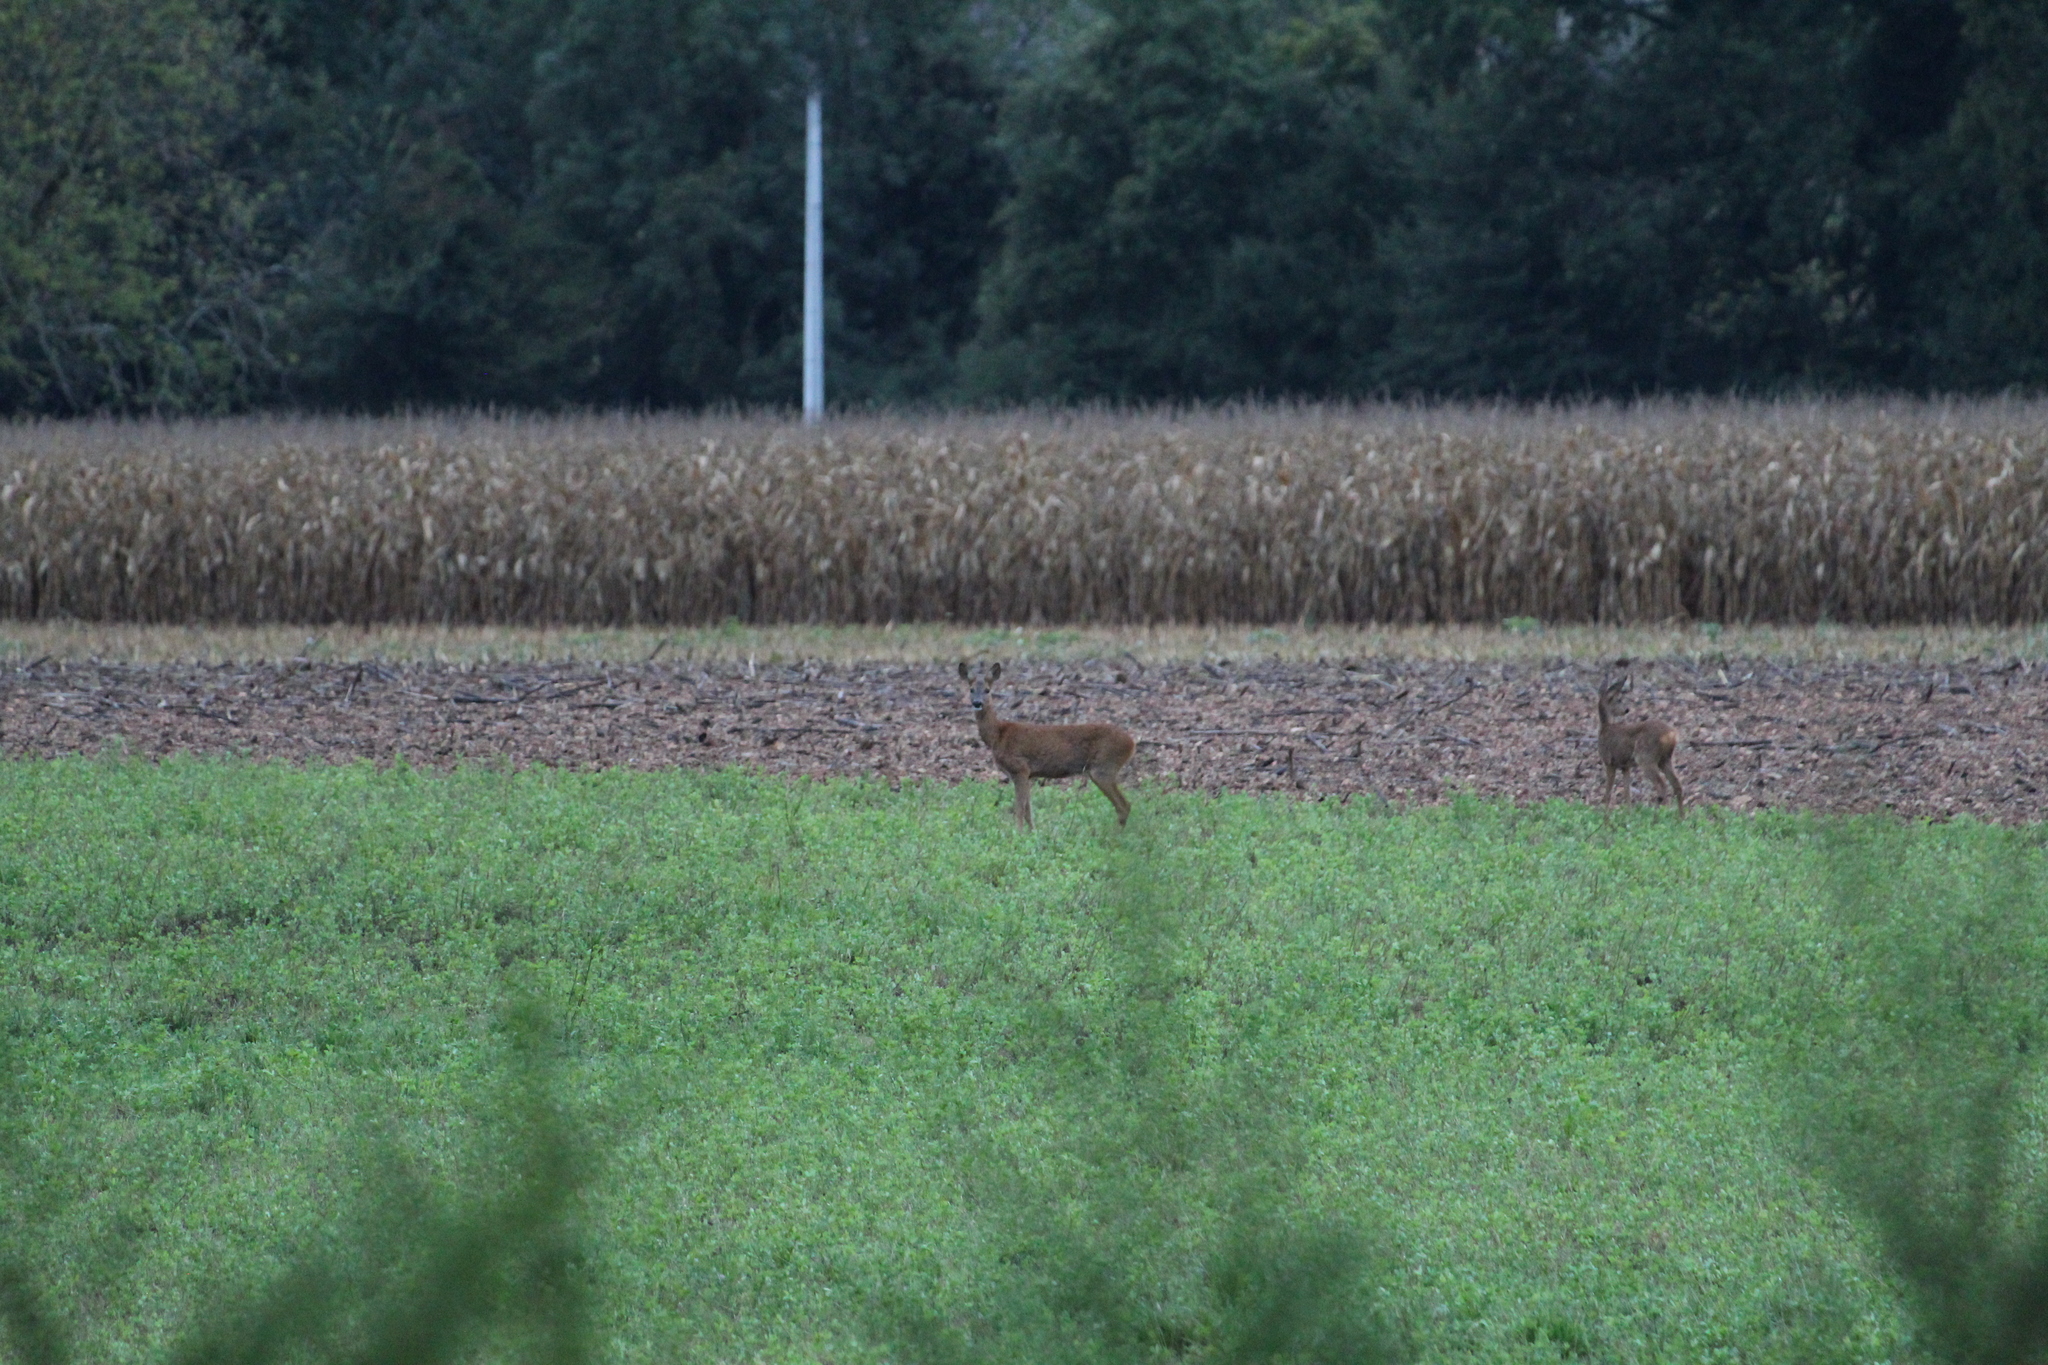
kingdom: Animalia
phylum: Chordata
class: Mammalia
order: Artiodactyla
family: Cervidae
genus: Capreolus
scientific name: Capreolus capreolus
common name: Western roe deer
